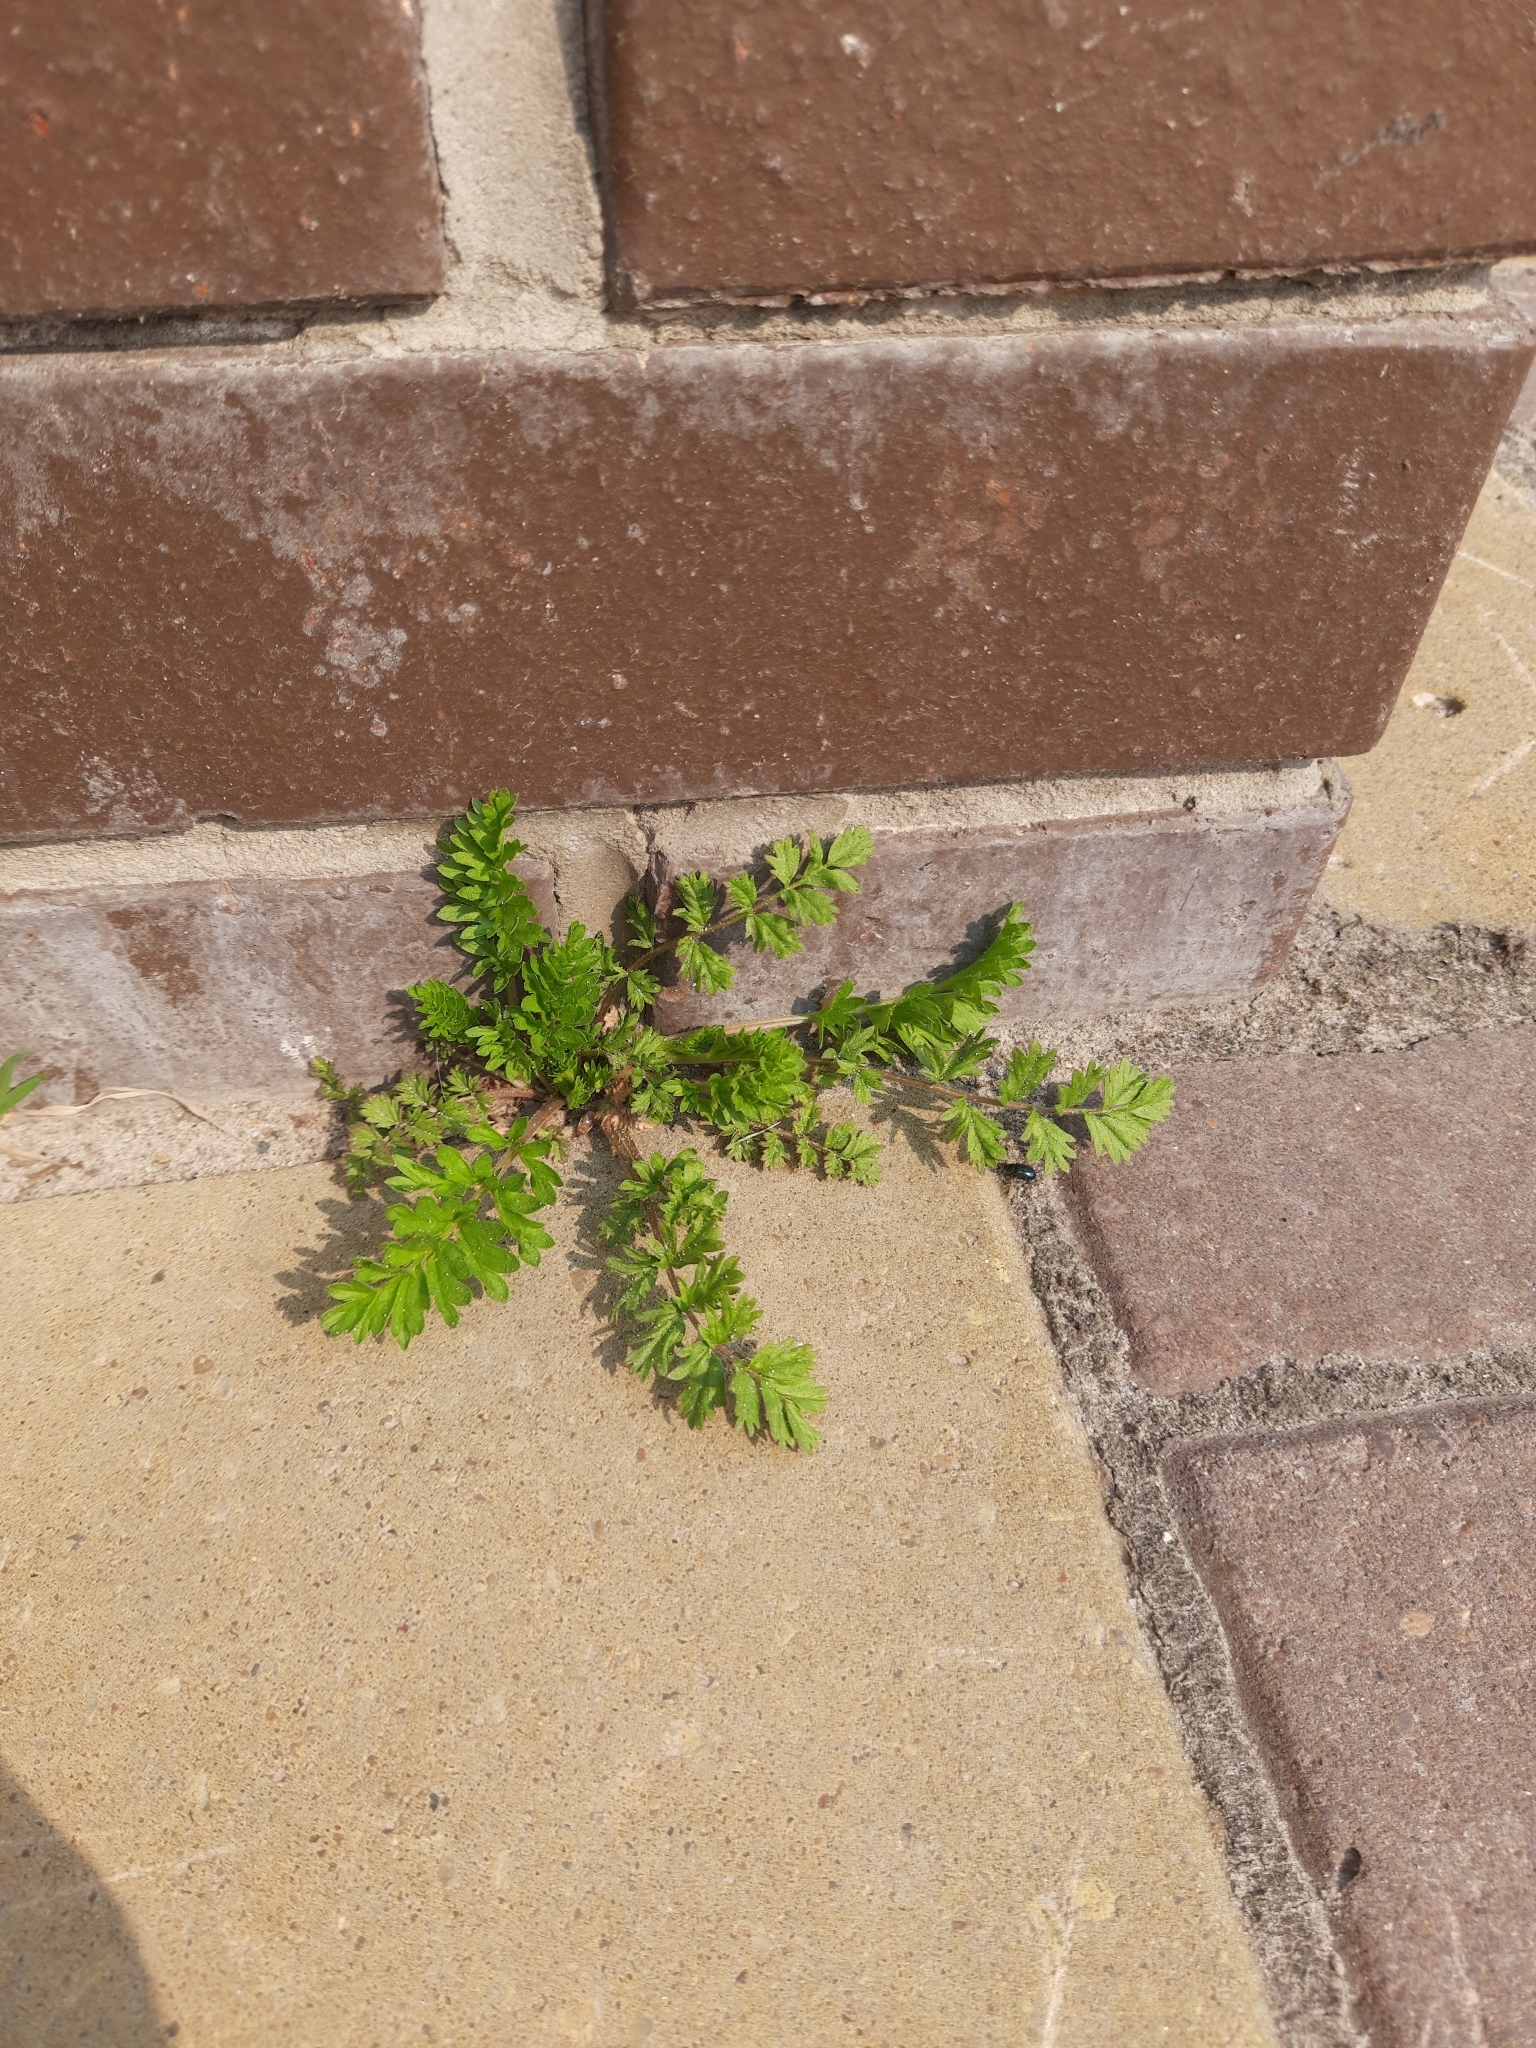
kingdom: Plantae
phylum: Tracheophyta
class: Magnoliopsida
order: Rosales
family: Rosaceae
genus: Potentilla
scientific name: Potentilla supina
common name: Prostrate cinquefoil
